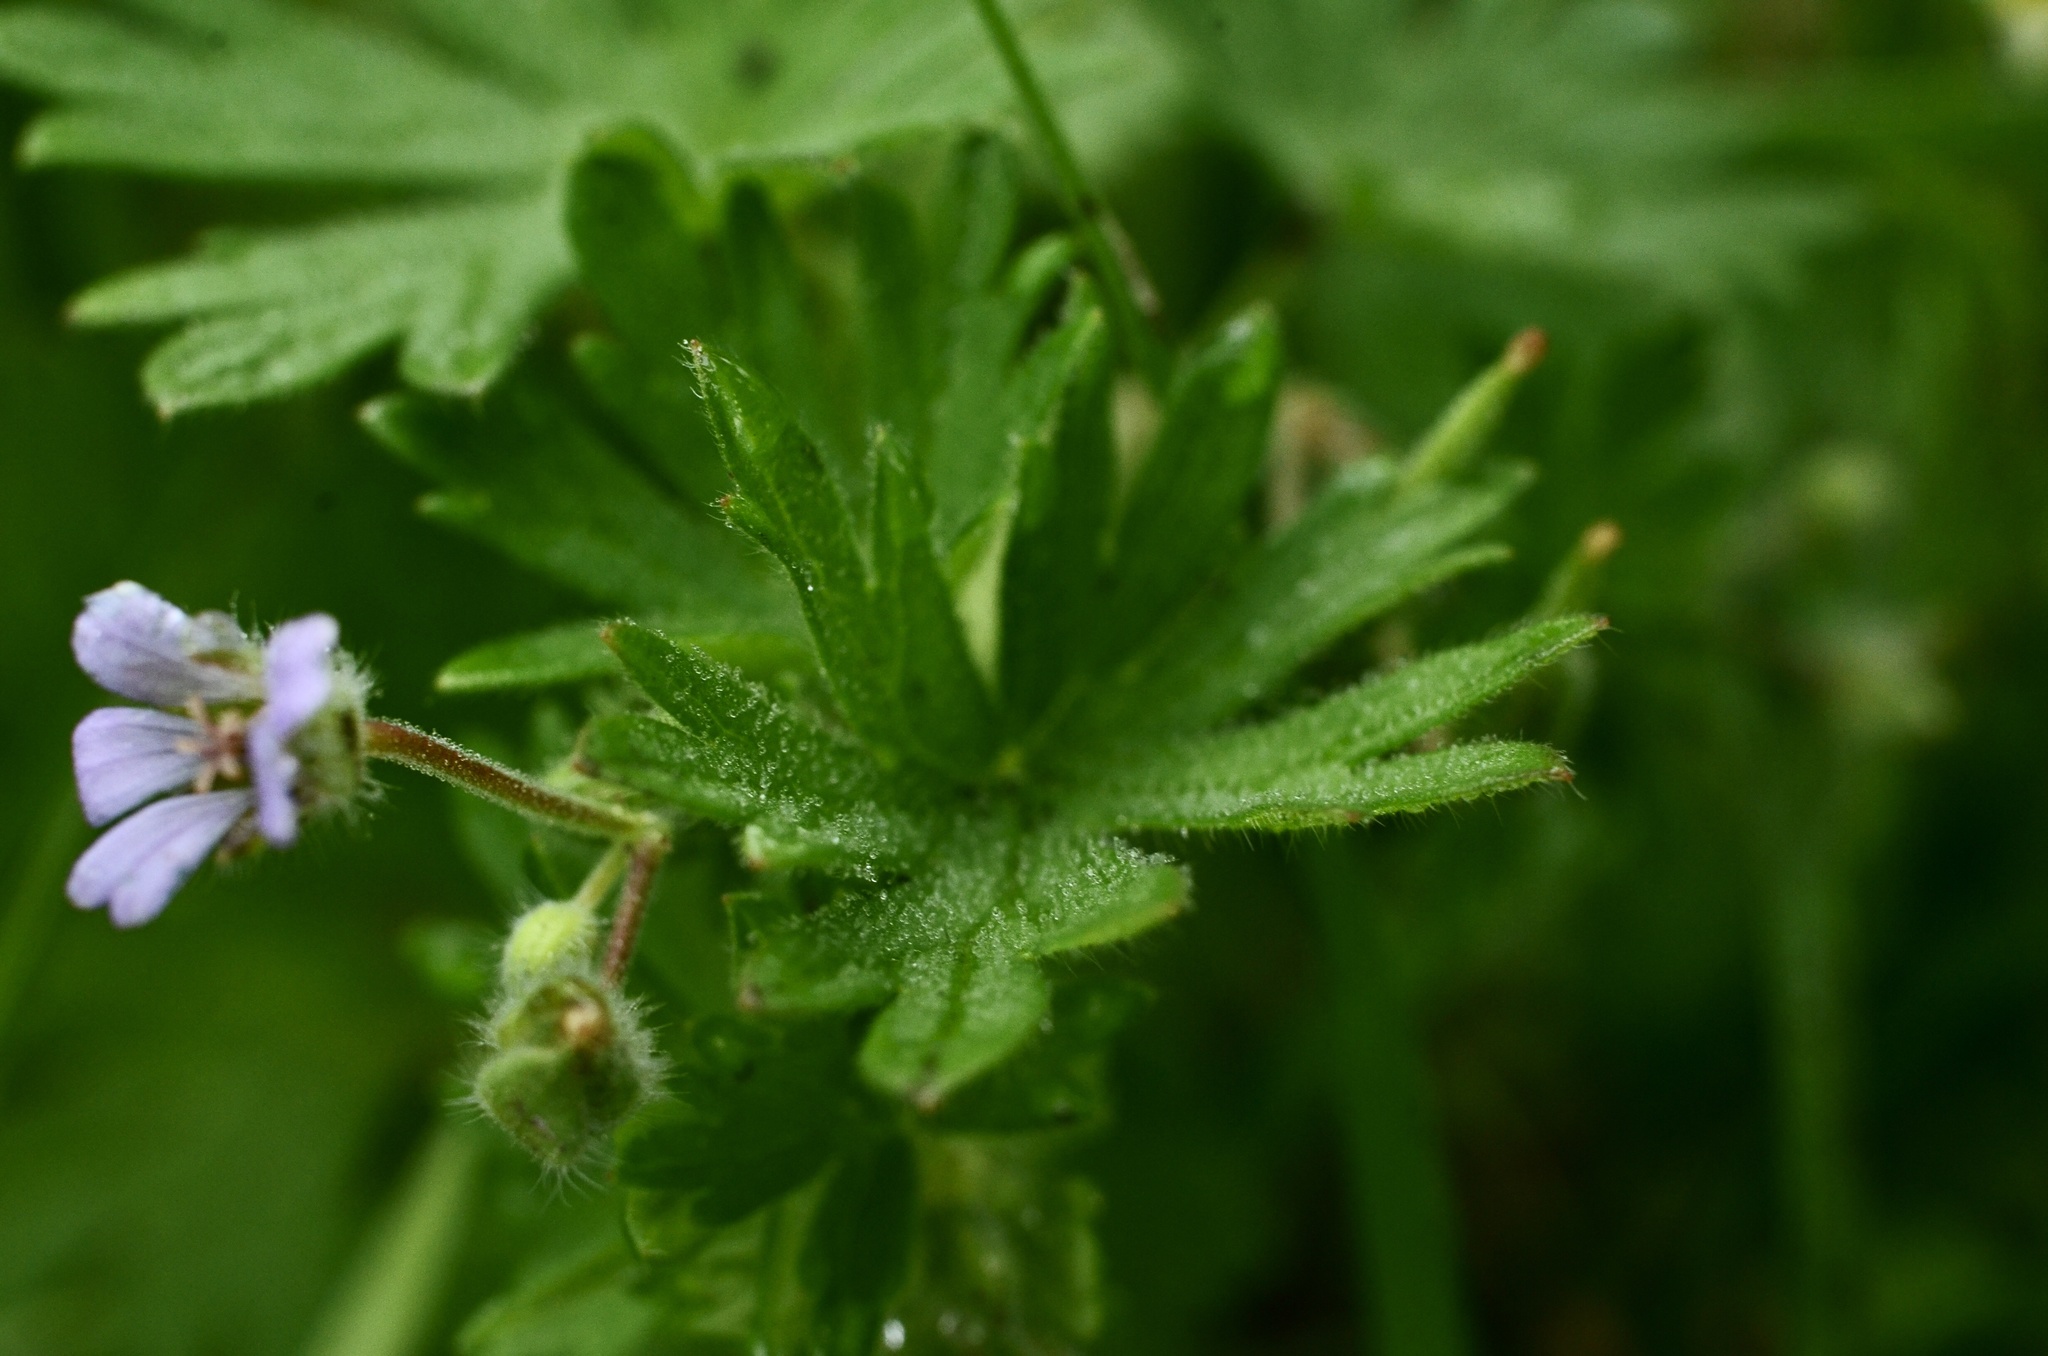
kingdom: Plantae
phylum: Tracheophyta
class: Magnoliopsida
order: Geraniales
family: Geraniaceae
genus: Geranium
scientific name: Geranium pusillum
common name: Small geranium
